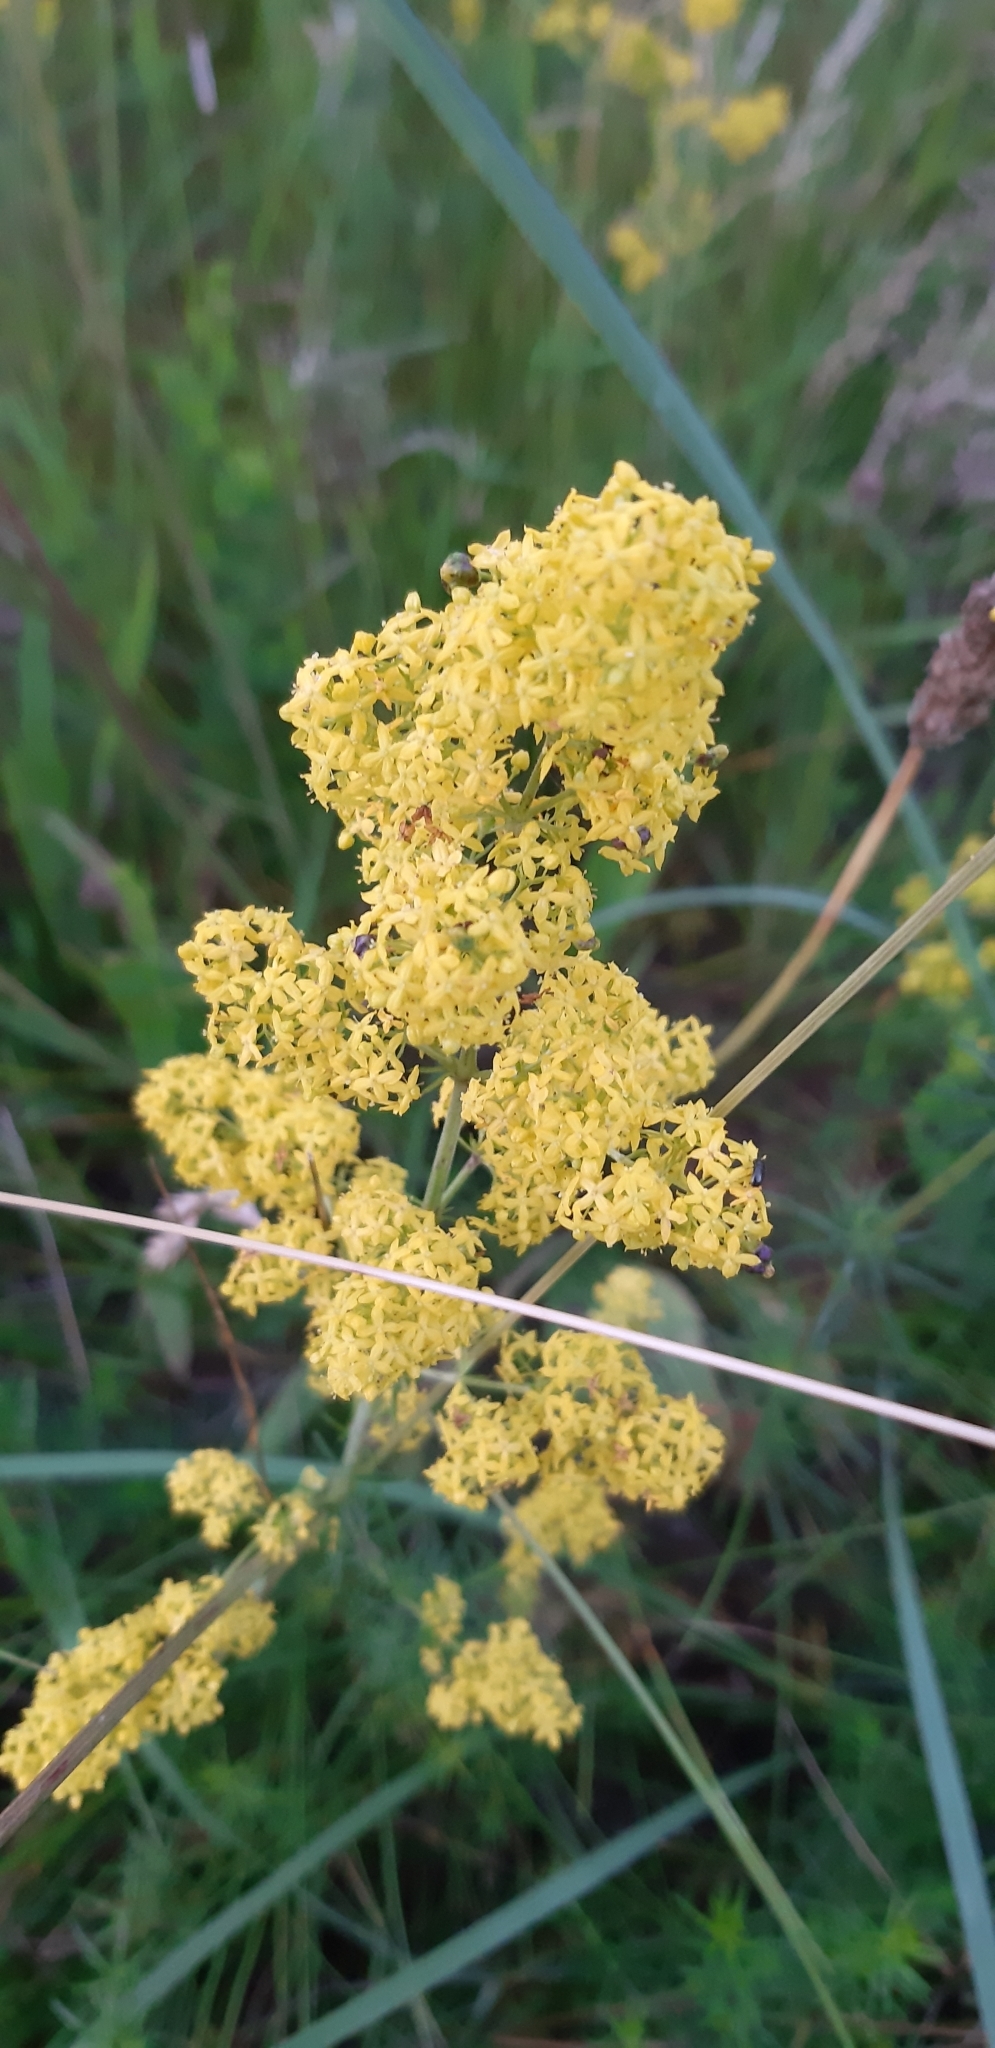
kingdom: Plantae
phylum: Tracheophyta
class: Magnoliopsida
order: Gentianales
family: Rubiaceae
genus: Galium
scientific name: Galium verum
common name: Lady's bedstraw
